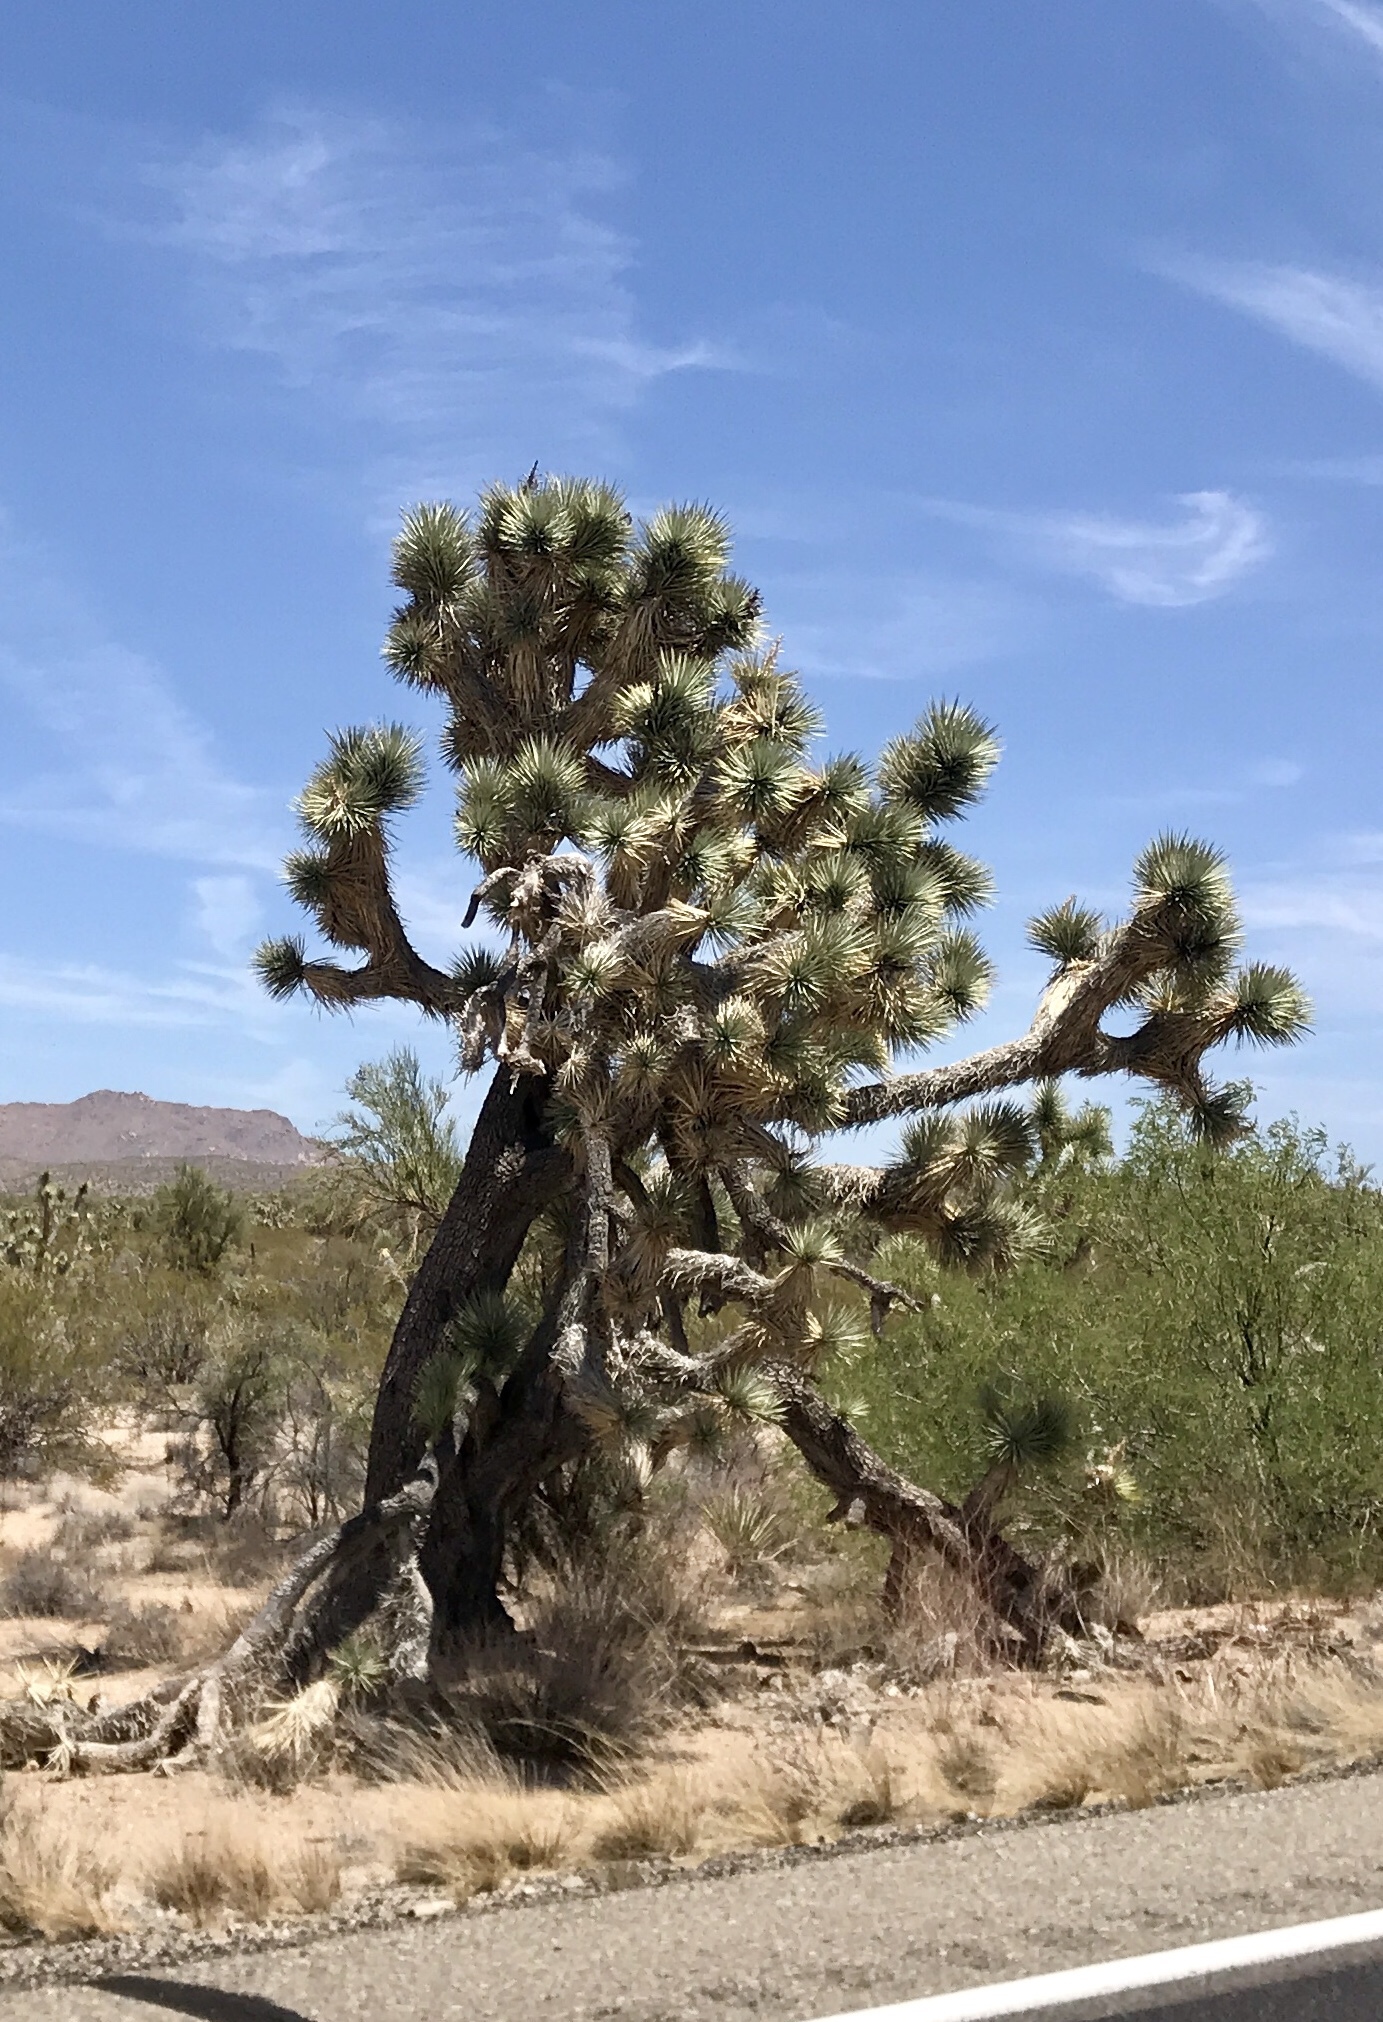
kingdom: Plantae
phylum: Tracheophyta
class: Liliopsida
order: Asparagales
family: Asparagaceae
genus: Yucca
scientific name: Yucca brevifolia
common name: Joshua tree
